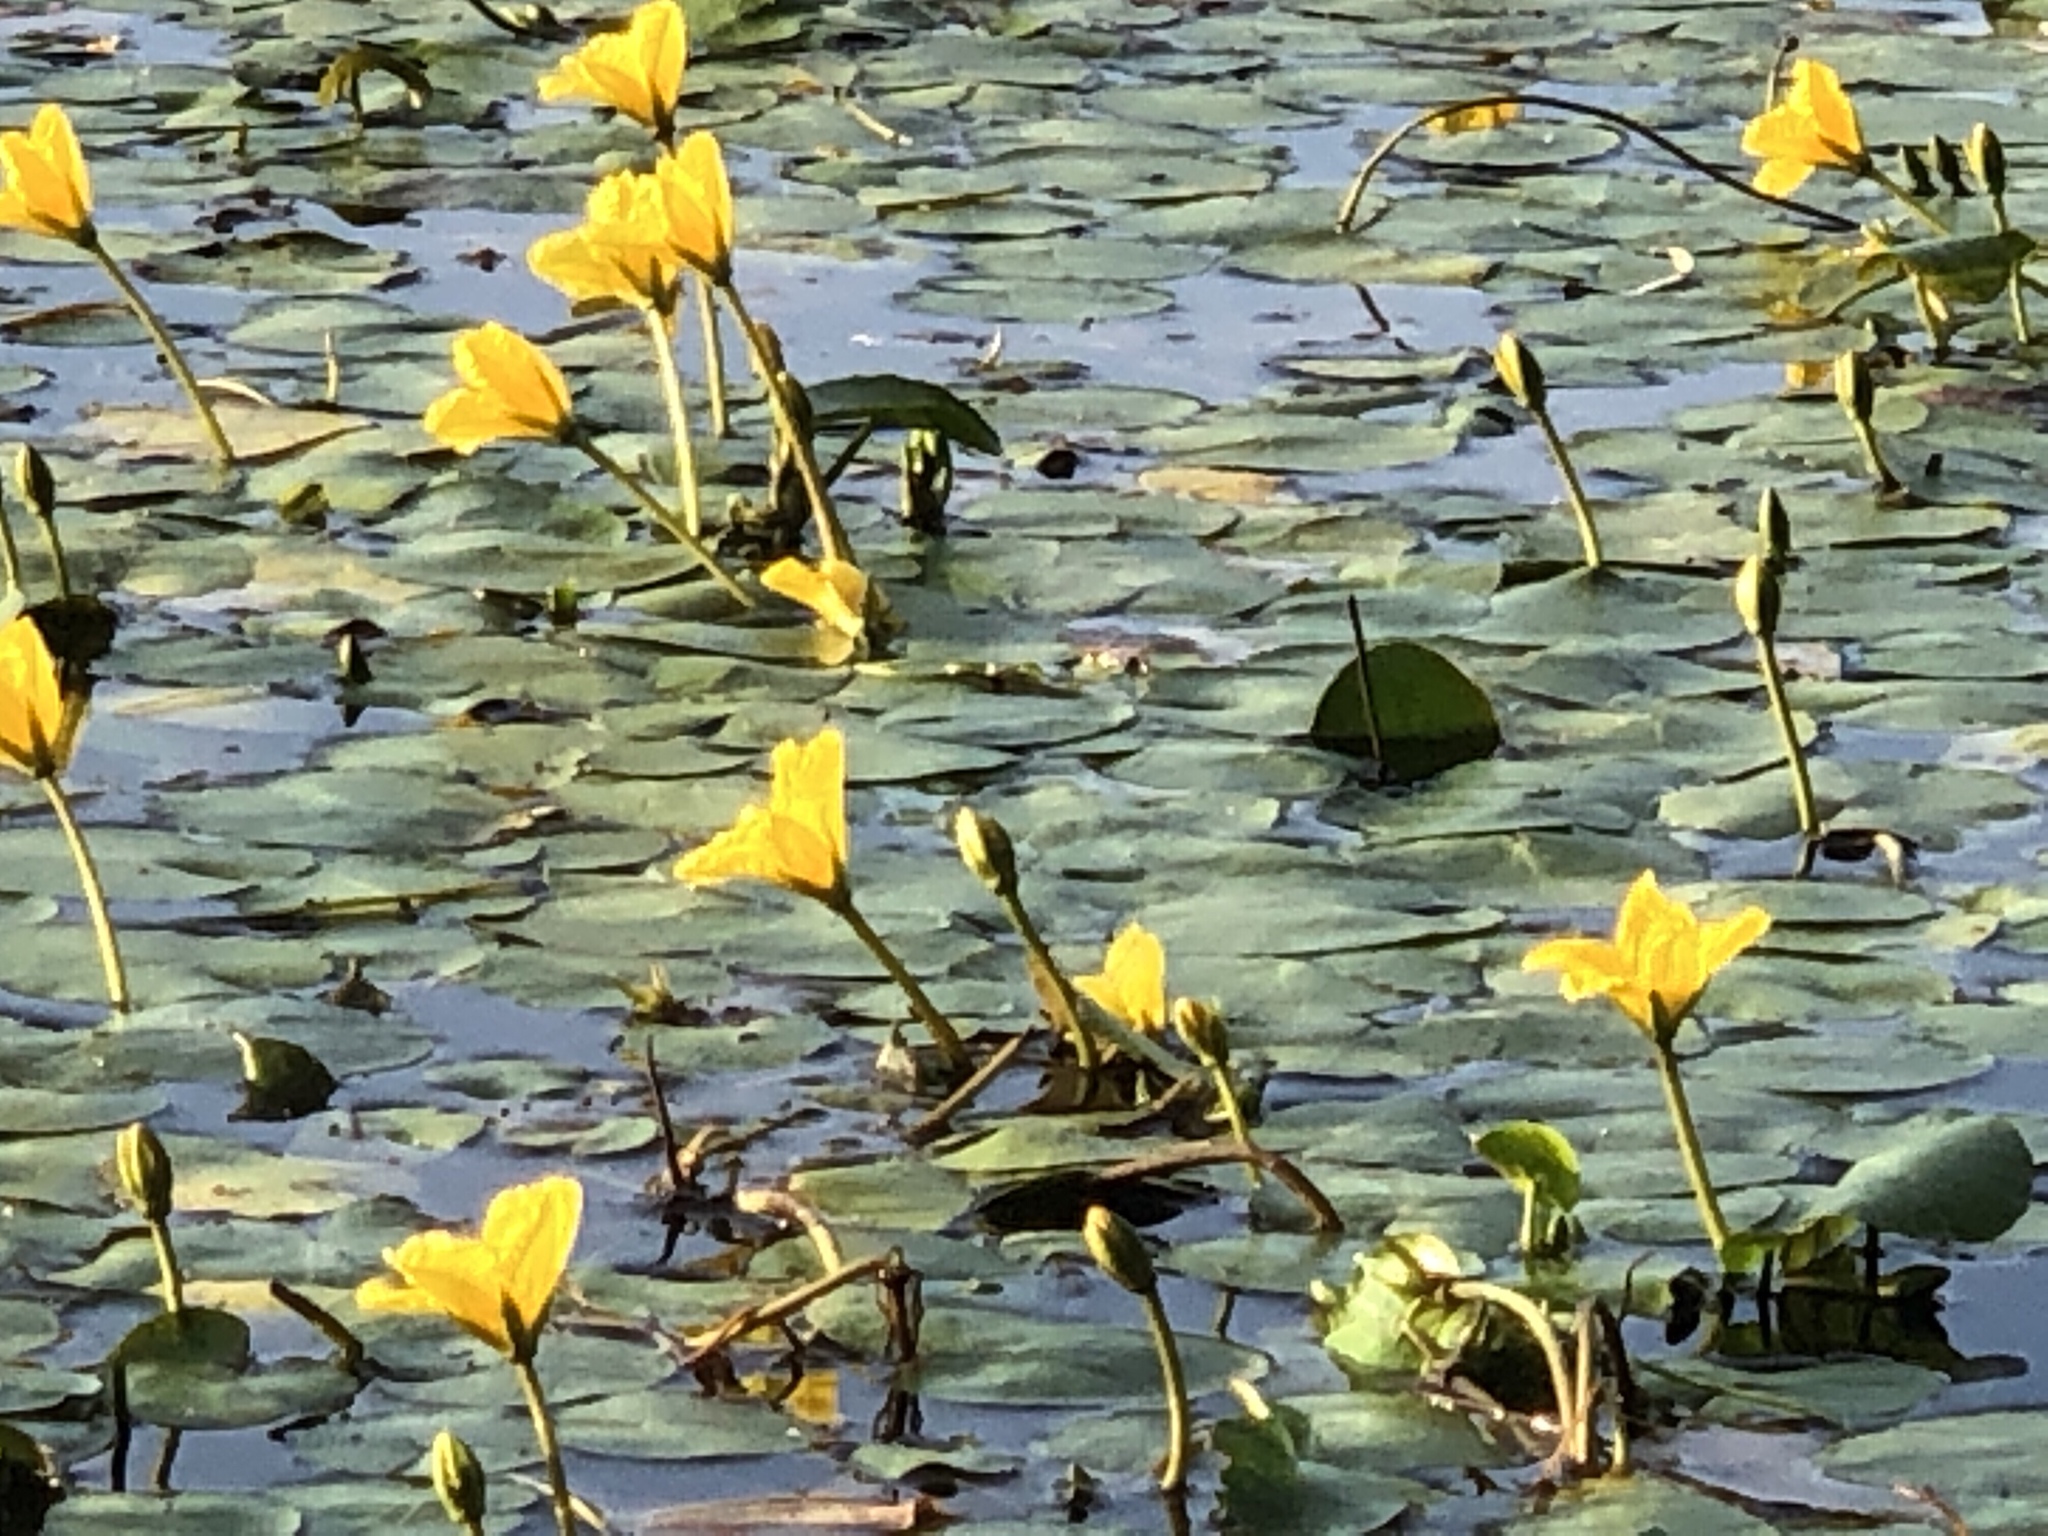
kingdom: Plantae
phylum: Tracheophyta
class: Magnoliopsida
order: Asterales
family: Menyanthaceae
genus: Nymphoides
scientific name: Nymphoides peltata
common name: Fringed water-lily
